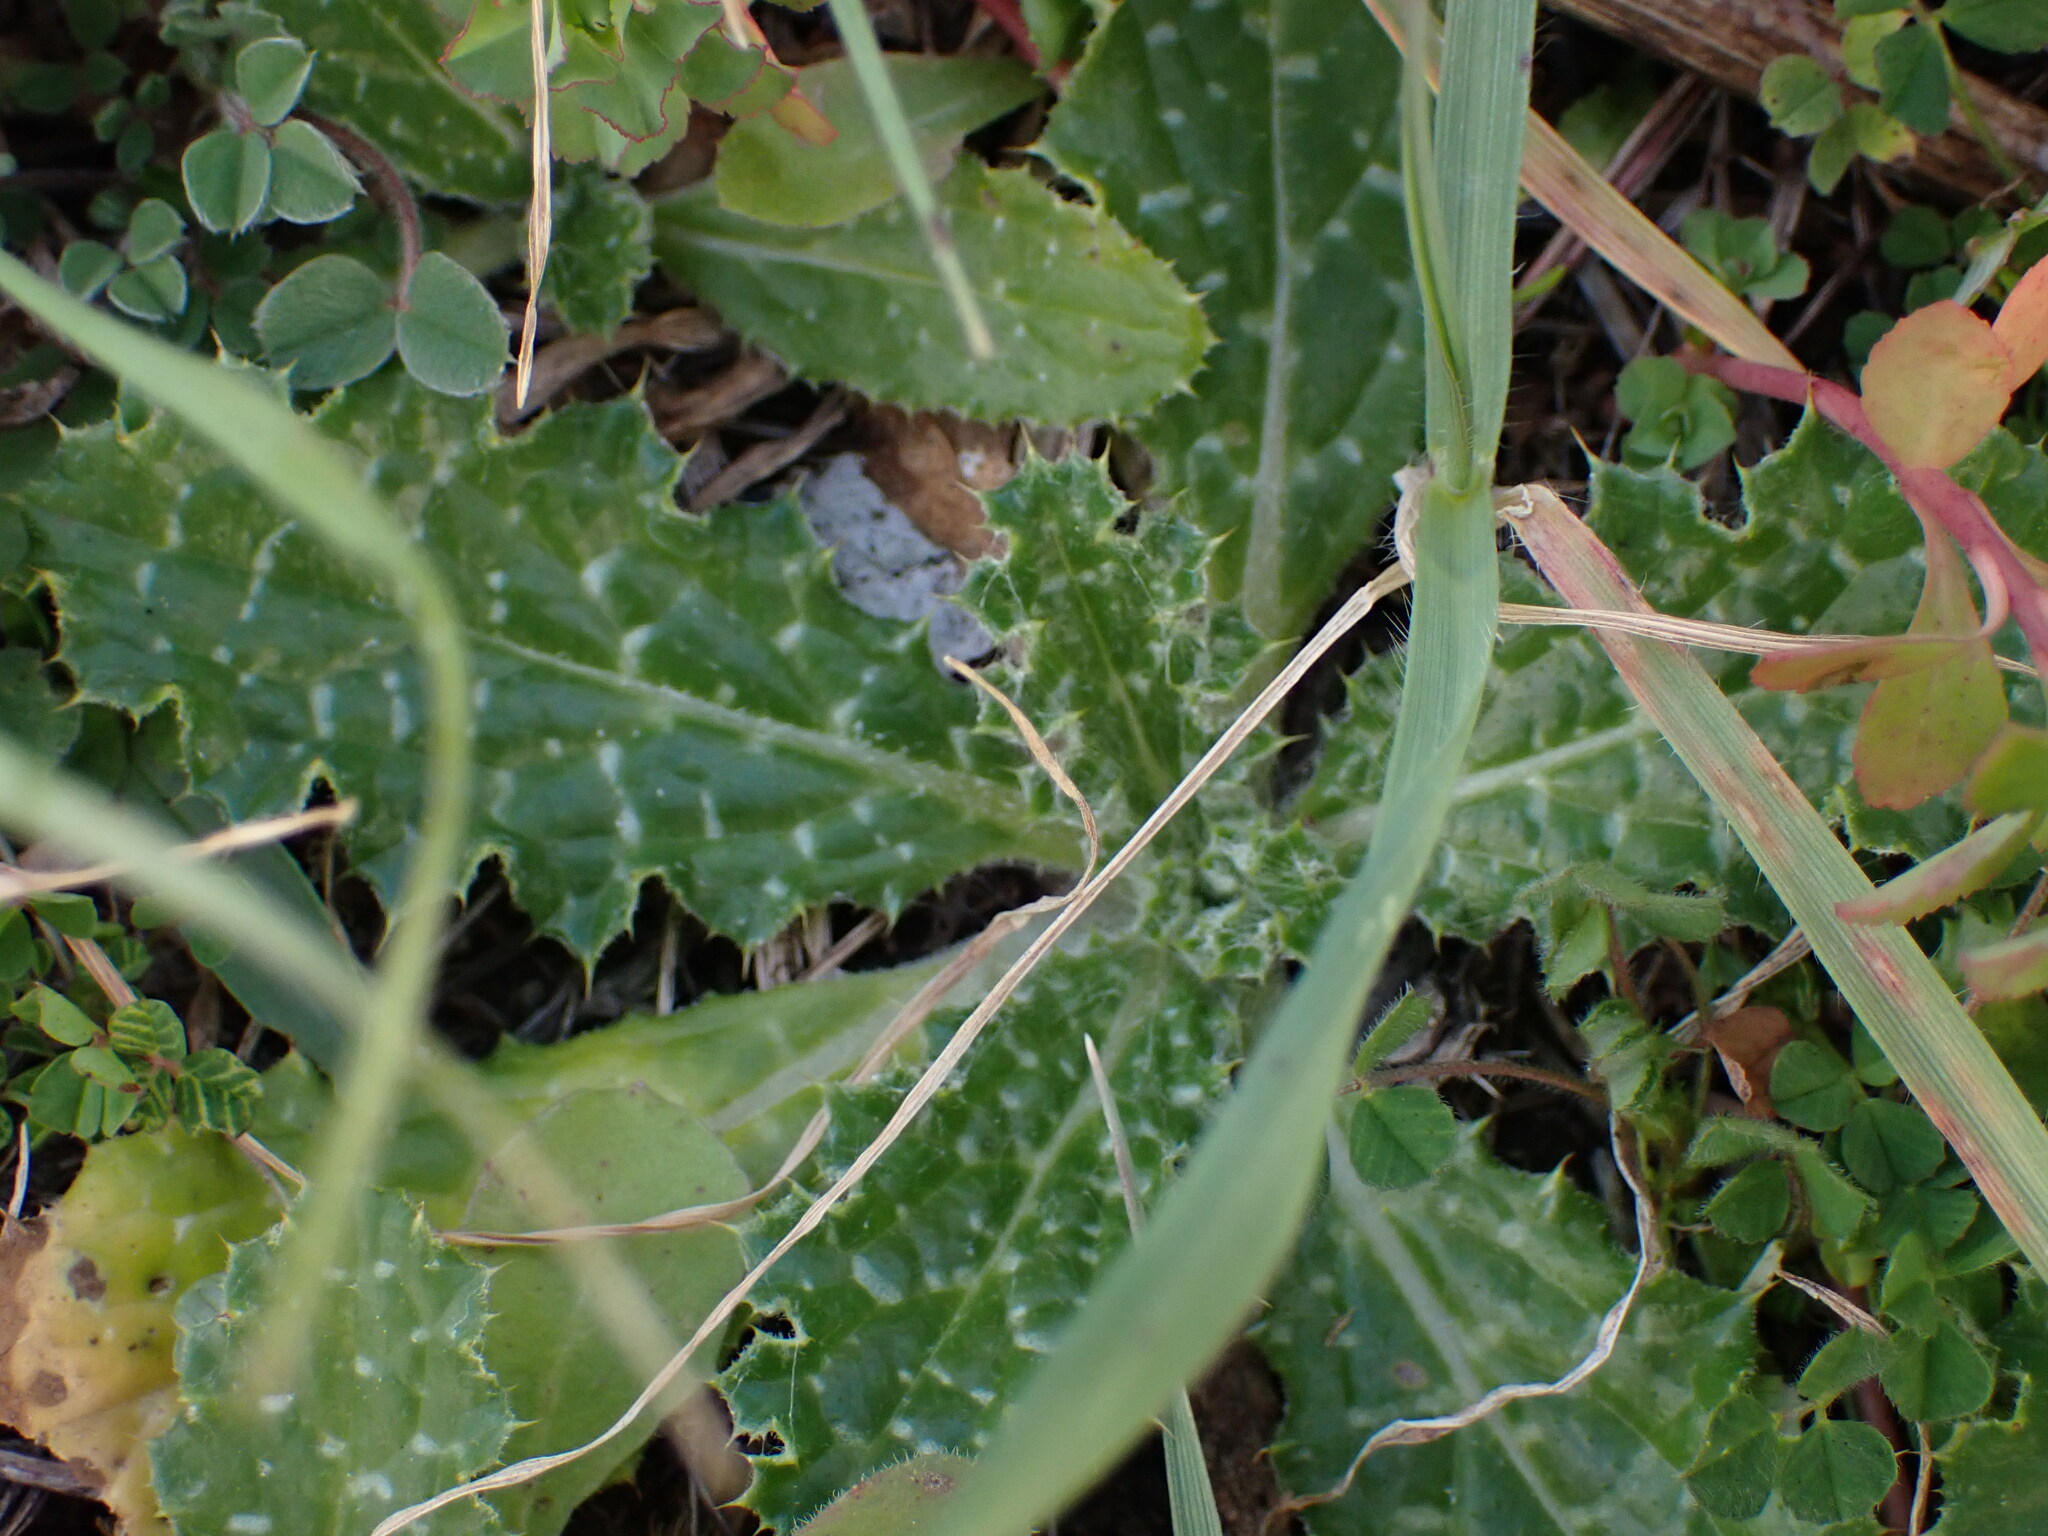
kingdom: Plantae
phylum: Tracheophyta
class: Magnoliopsida
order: Asterales
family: Asteraceae
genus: Tyrimnus
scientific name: Tyrimnus leucographus
